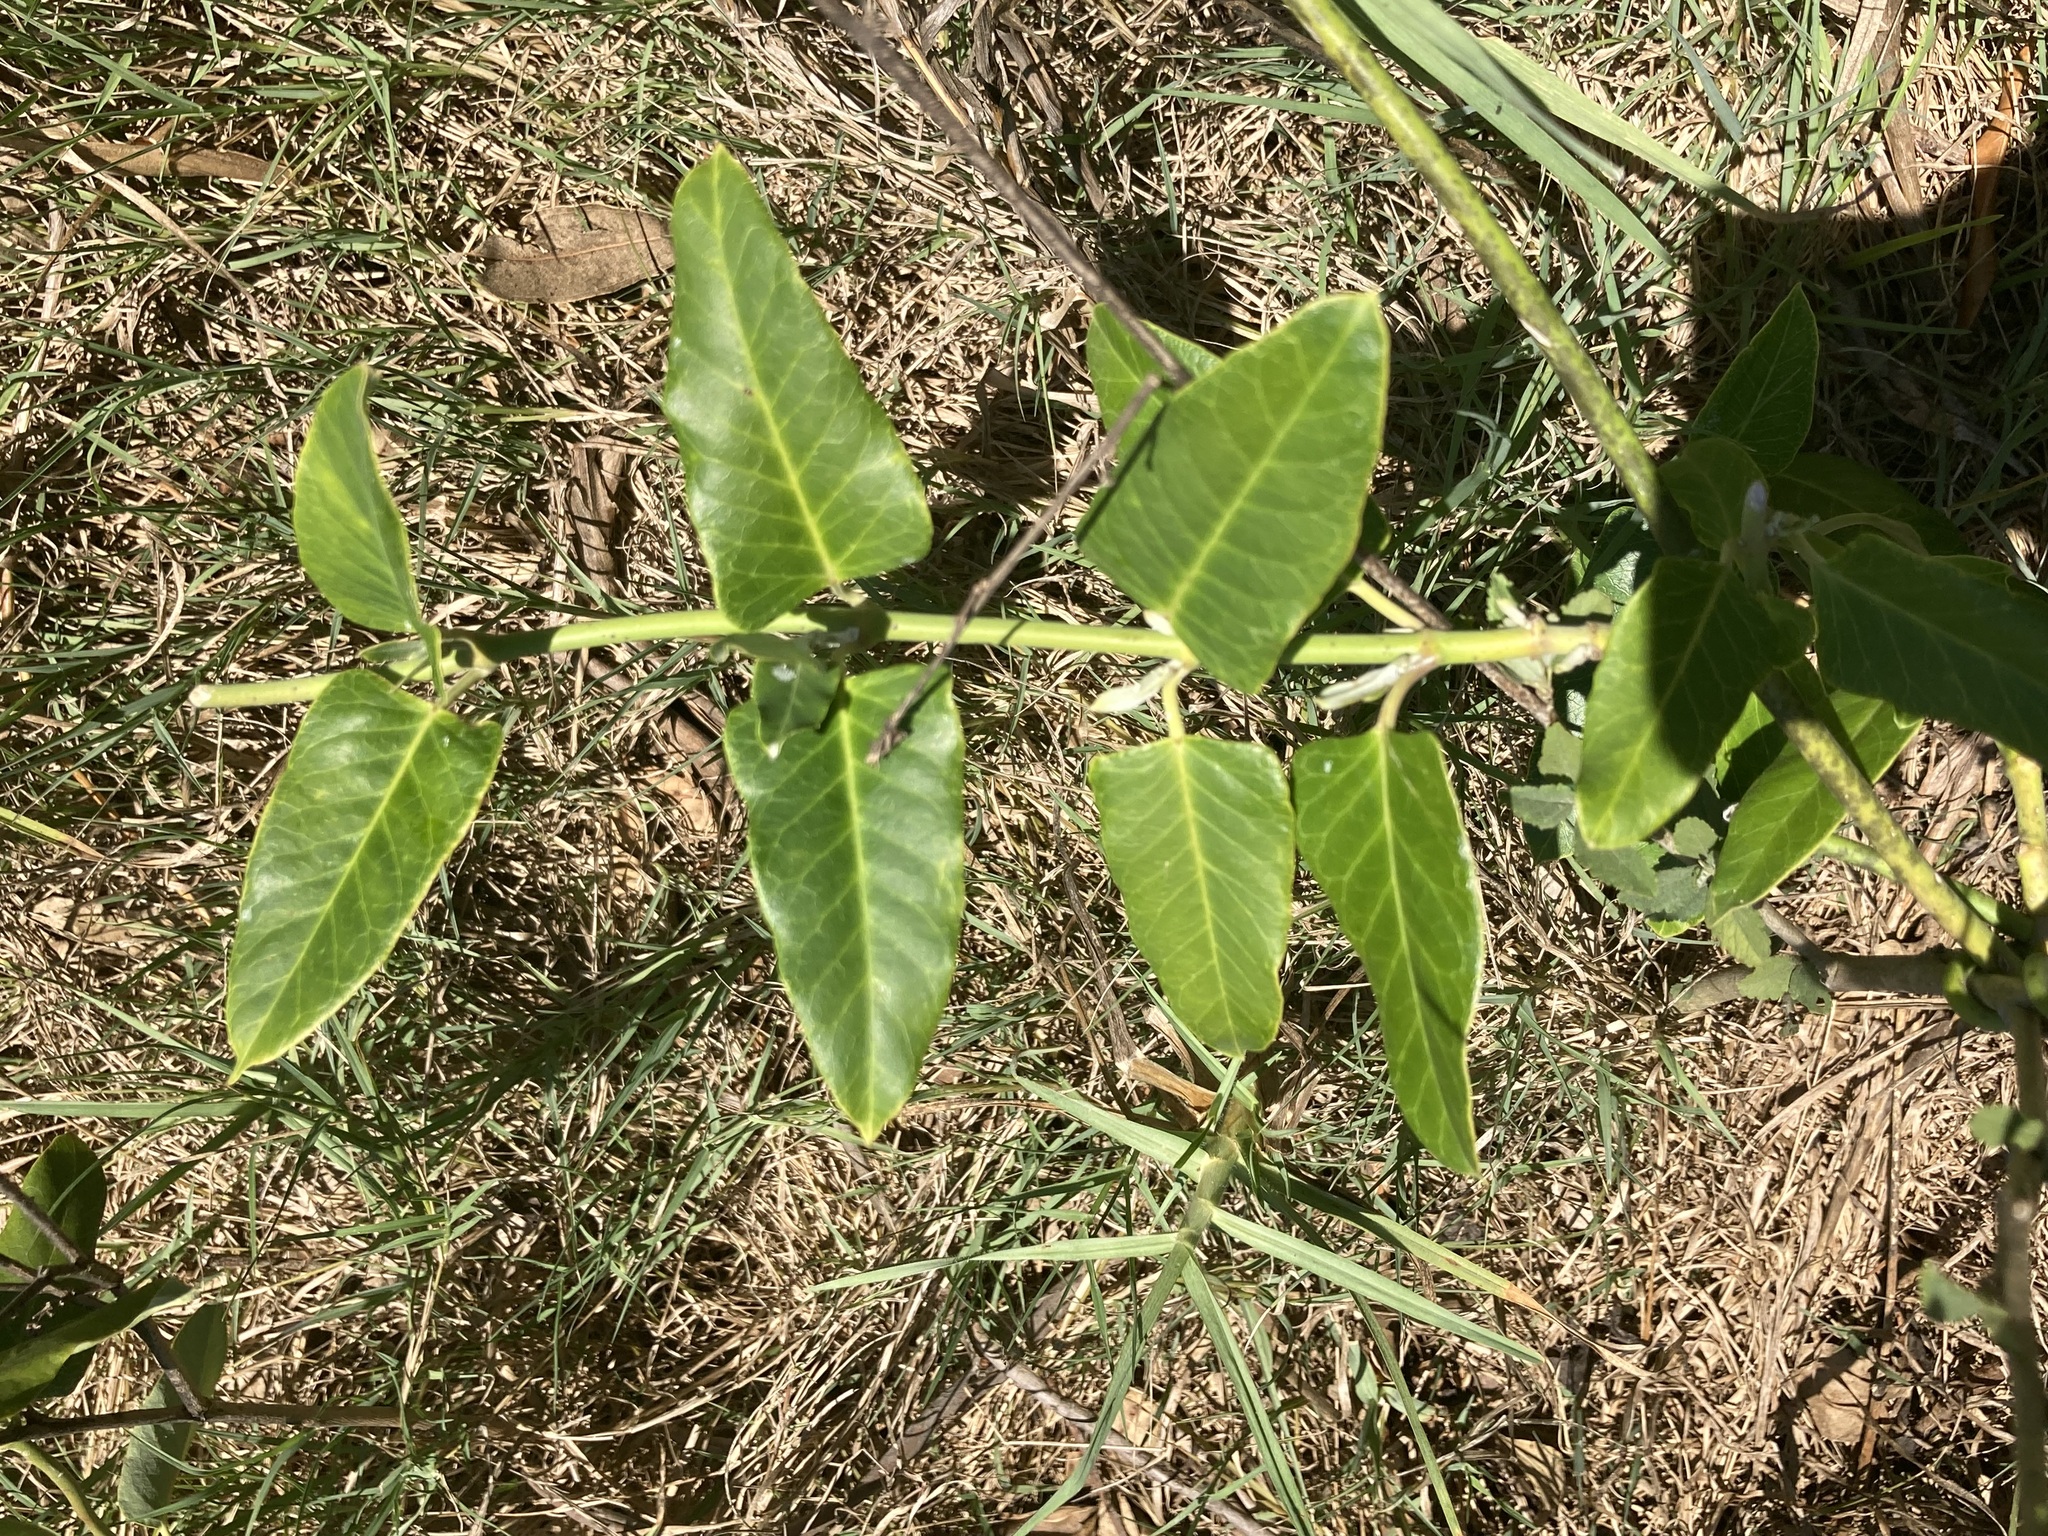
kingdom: Plantae
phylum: Tracheophyta
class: Magnoliopsida
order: Gentianales
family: Apocynaceae
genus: Araujia
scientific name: Araujia sericifera
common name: White bladderflower
